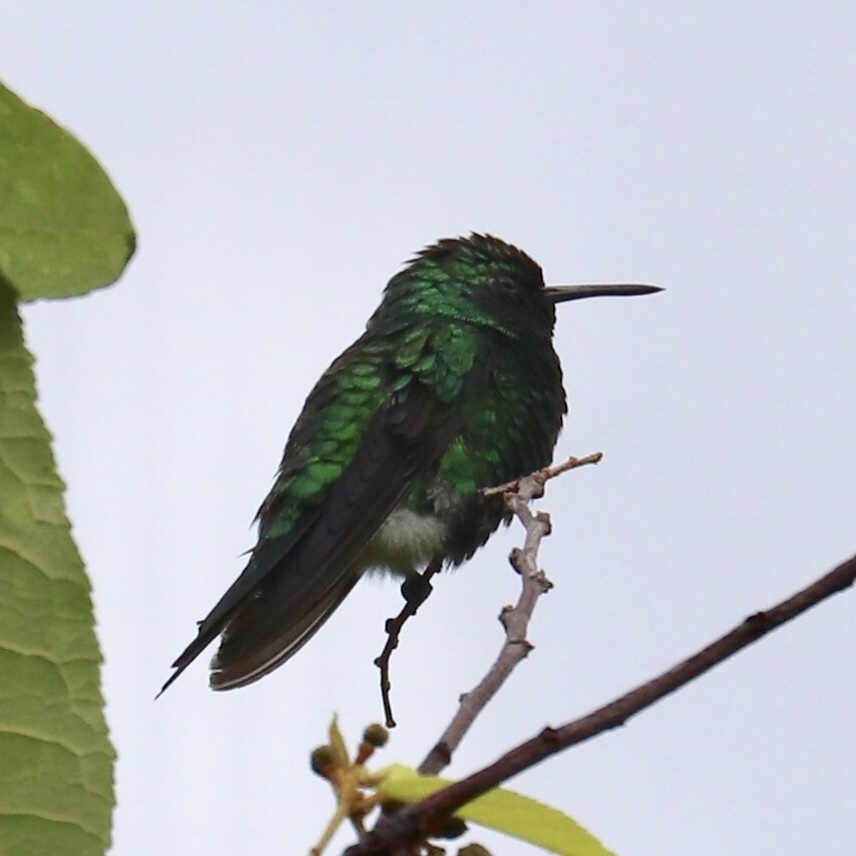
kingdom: Animalia
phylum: Chordata
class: Aves
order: Apodiformes
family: Trochilidae
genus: Chlorostilbon
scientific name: Chlorostilbon assimilis
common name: Garden emerald
